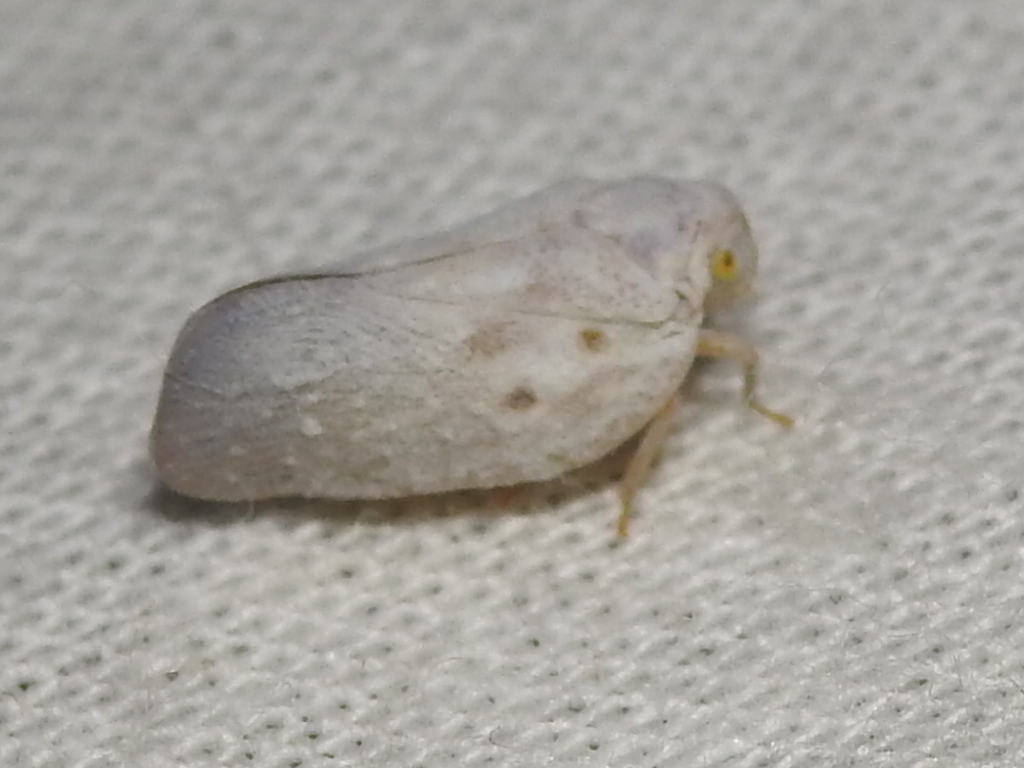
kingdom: Animalia
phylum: Arthropoda
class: Insecta
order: Hemiptera
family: Flatidae
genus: Metcalfa
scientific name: Metcalfa pruinosa
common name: Citrus flatid planthopper
